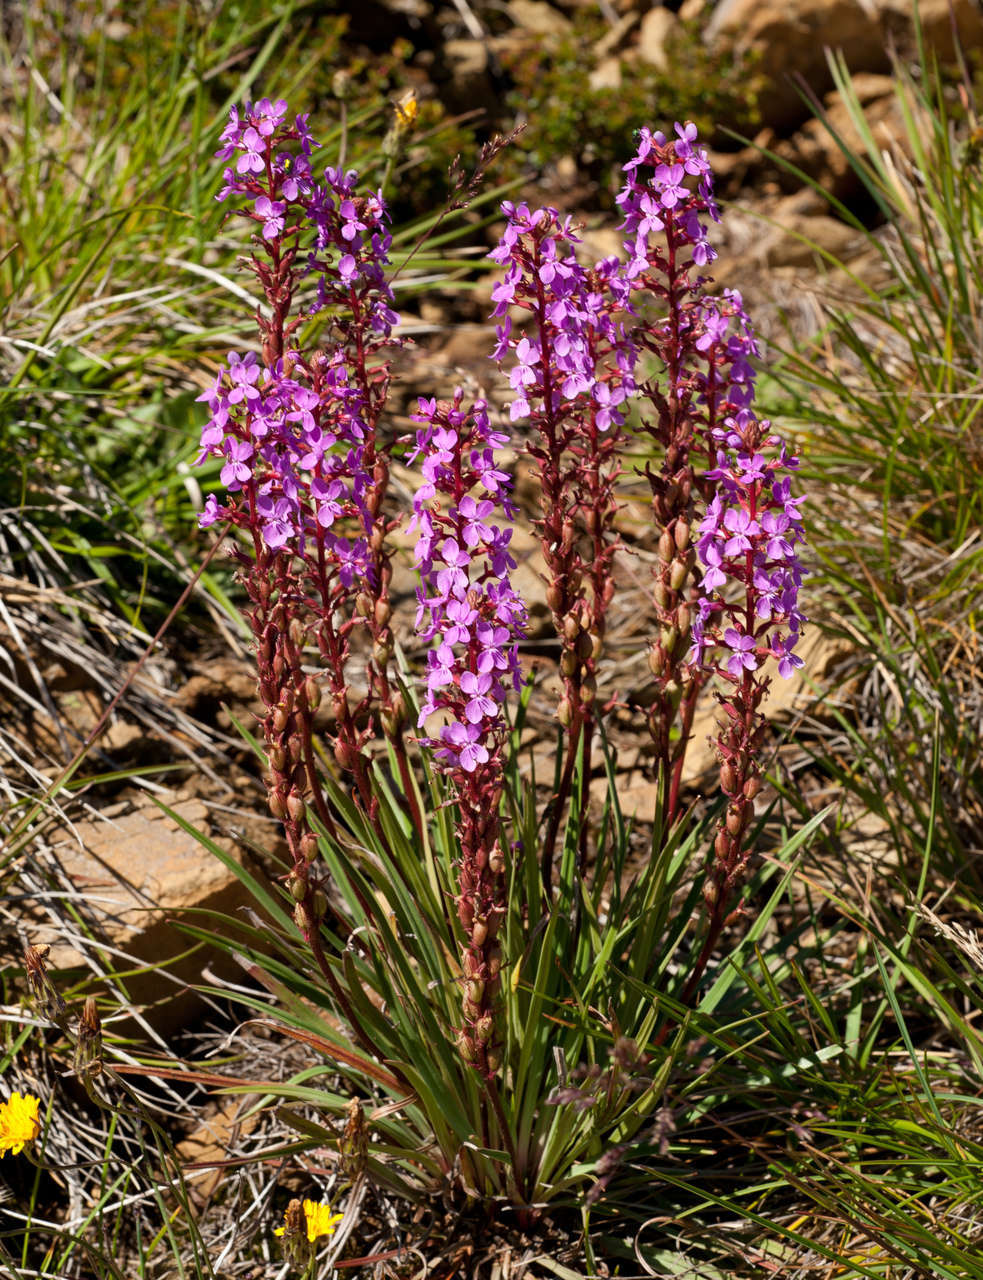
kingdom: Plantae
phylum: Tracheophyta
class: Magnoliopsida
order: Asterales
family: Stylidiaceae
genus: Stylidium
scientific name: Stylidium armeria
